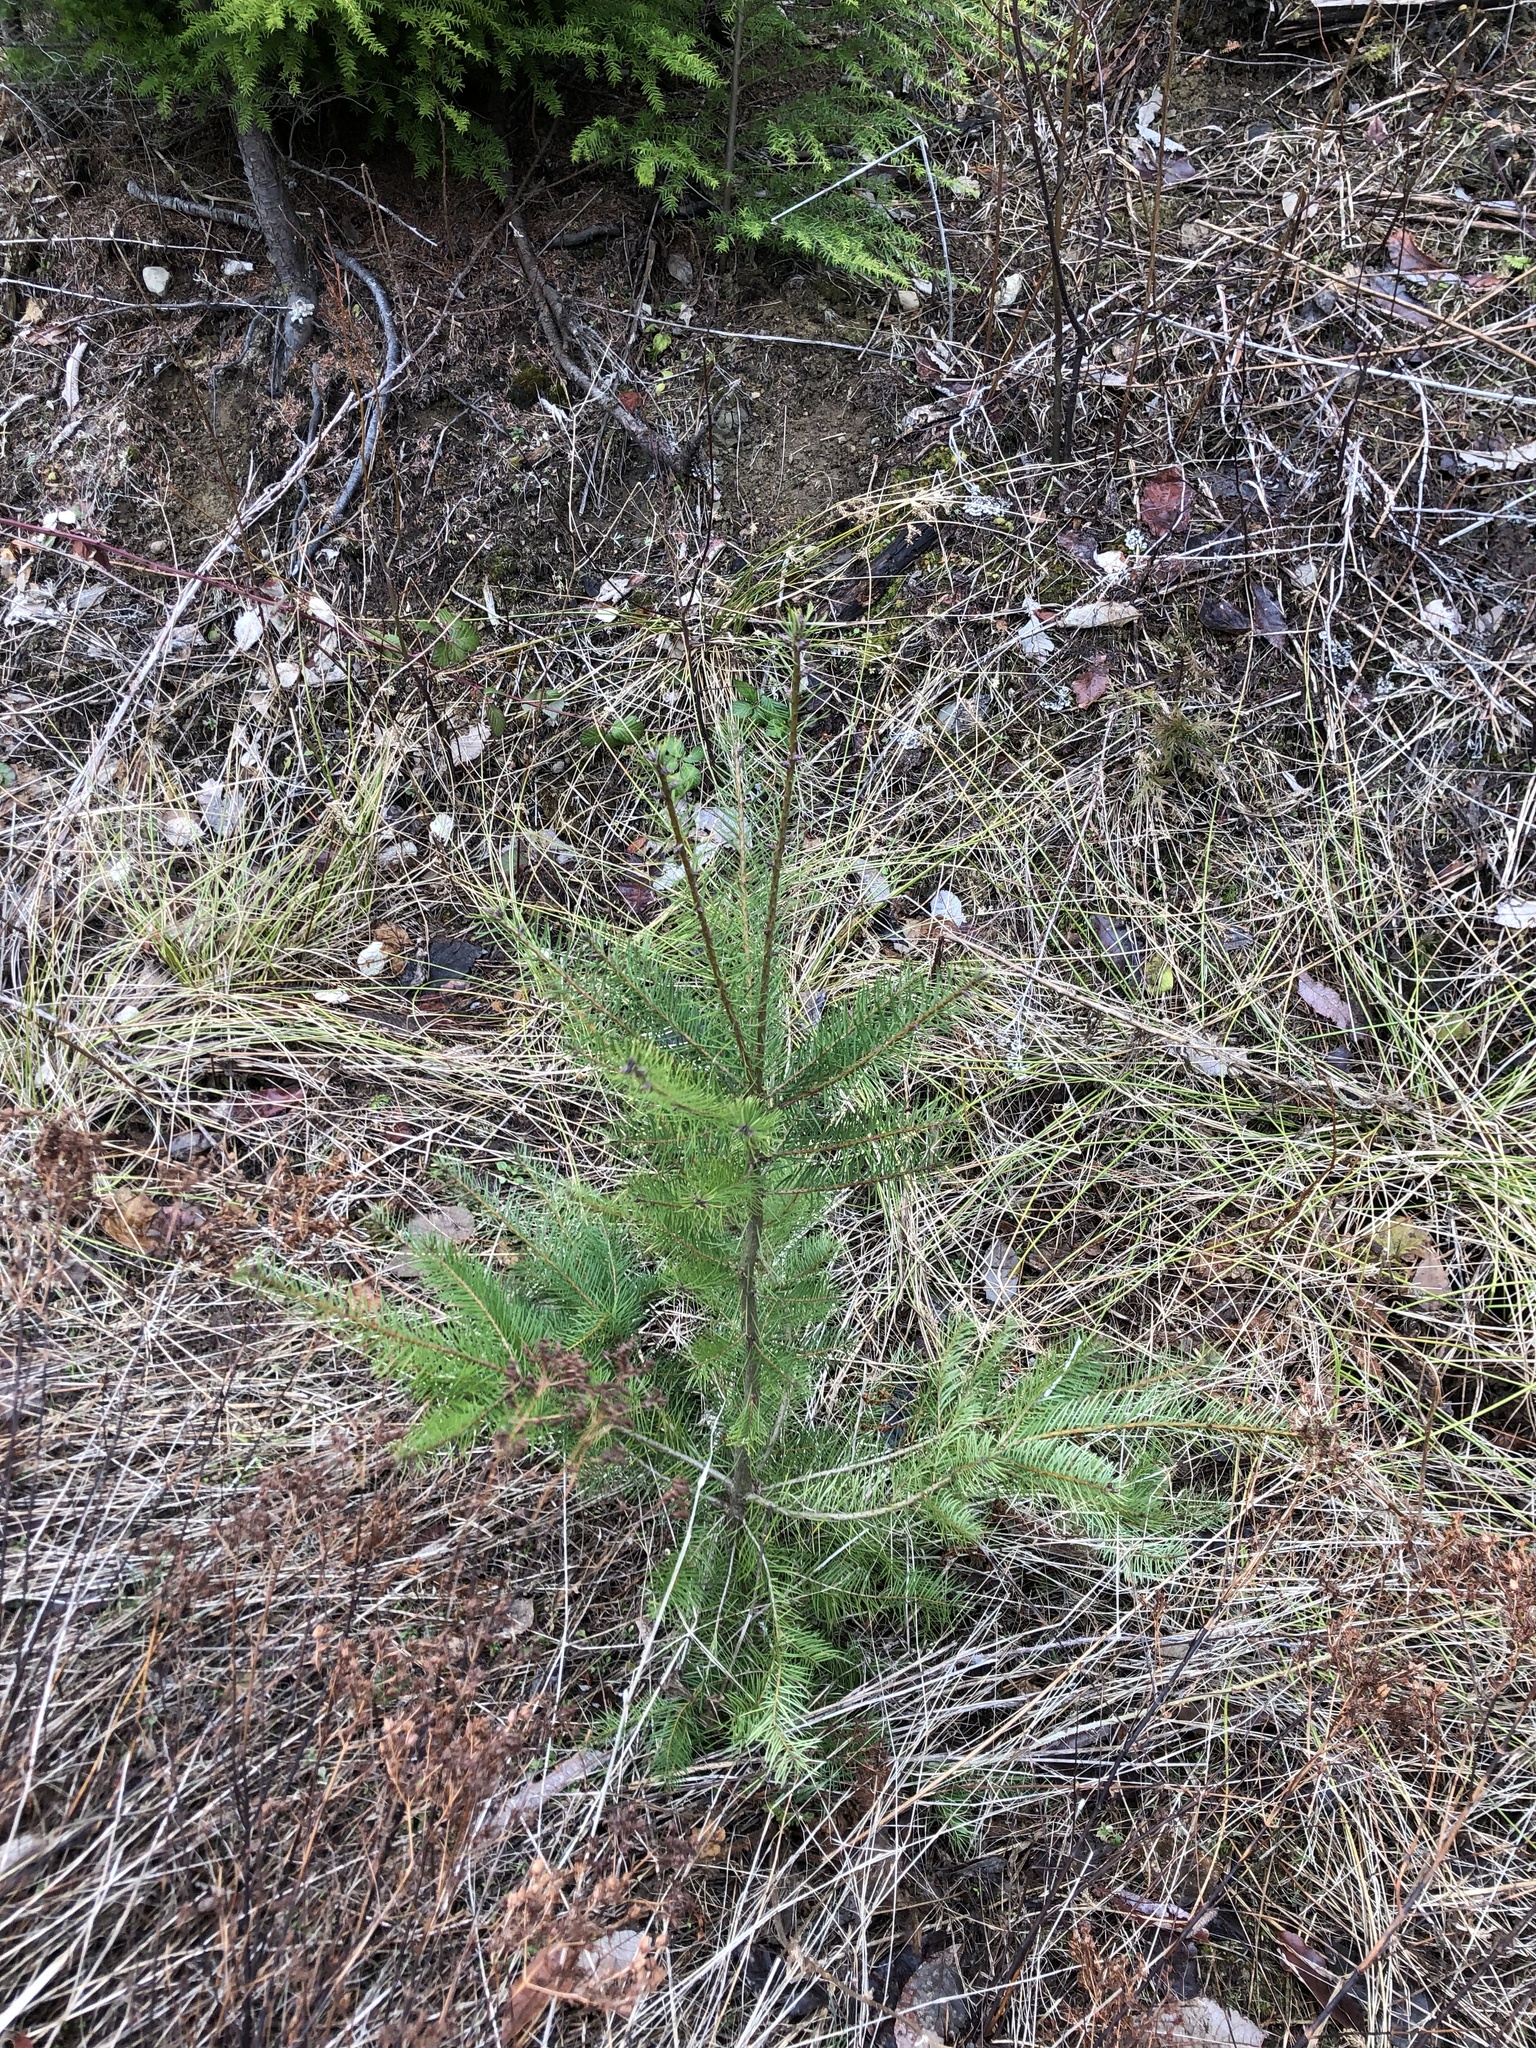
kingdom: Plantae
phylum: Tracheophyta
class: Pinopsida
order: Pinales
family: Pinaceae
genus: Pseudotsuga
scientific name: Pseudotsuga menziesii
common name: Douglas fir
